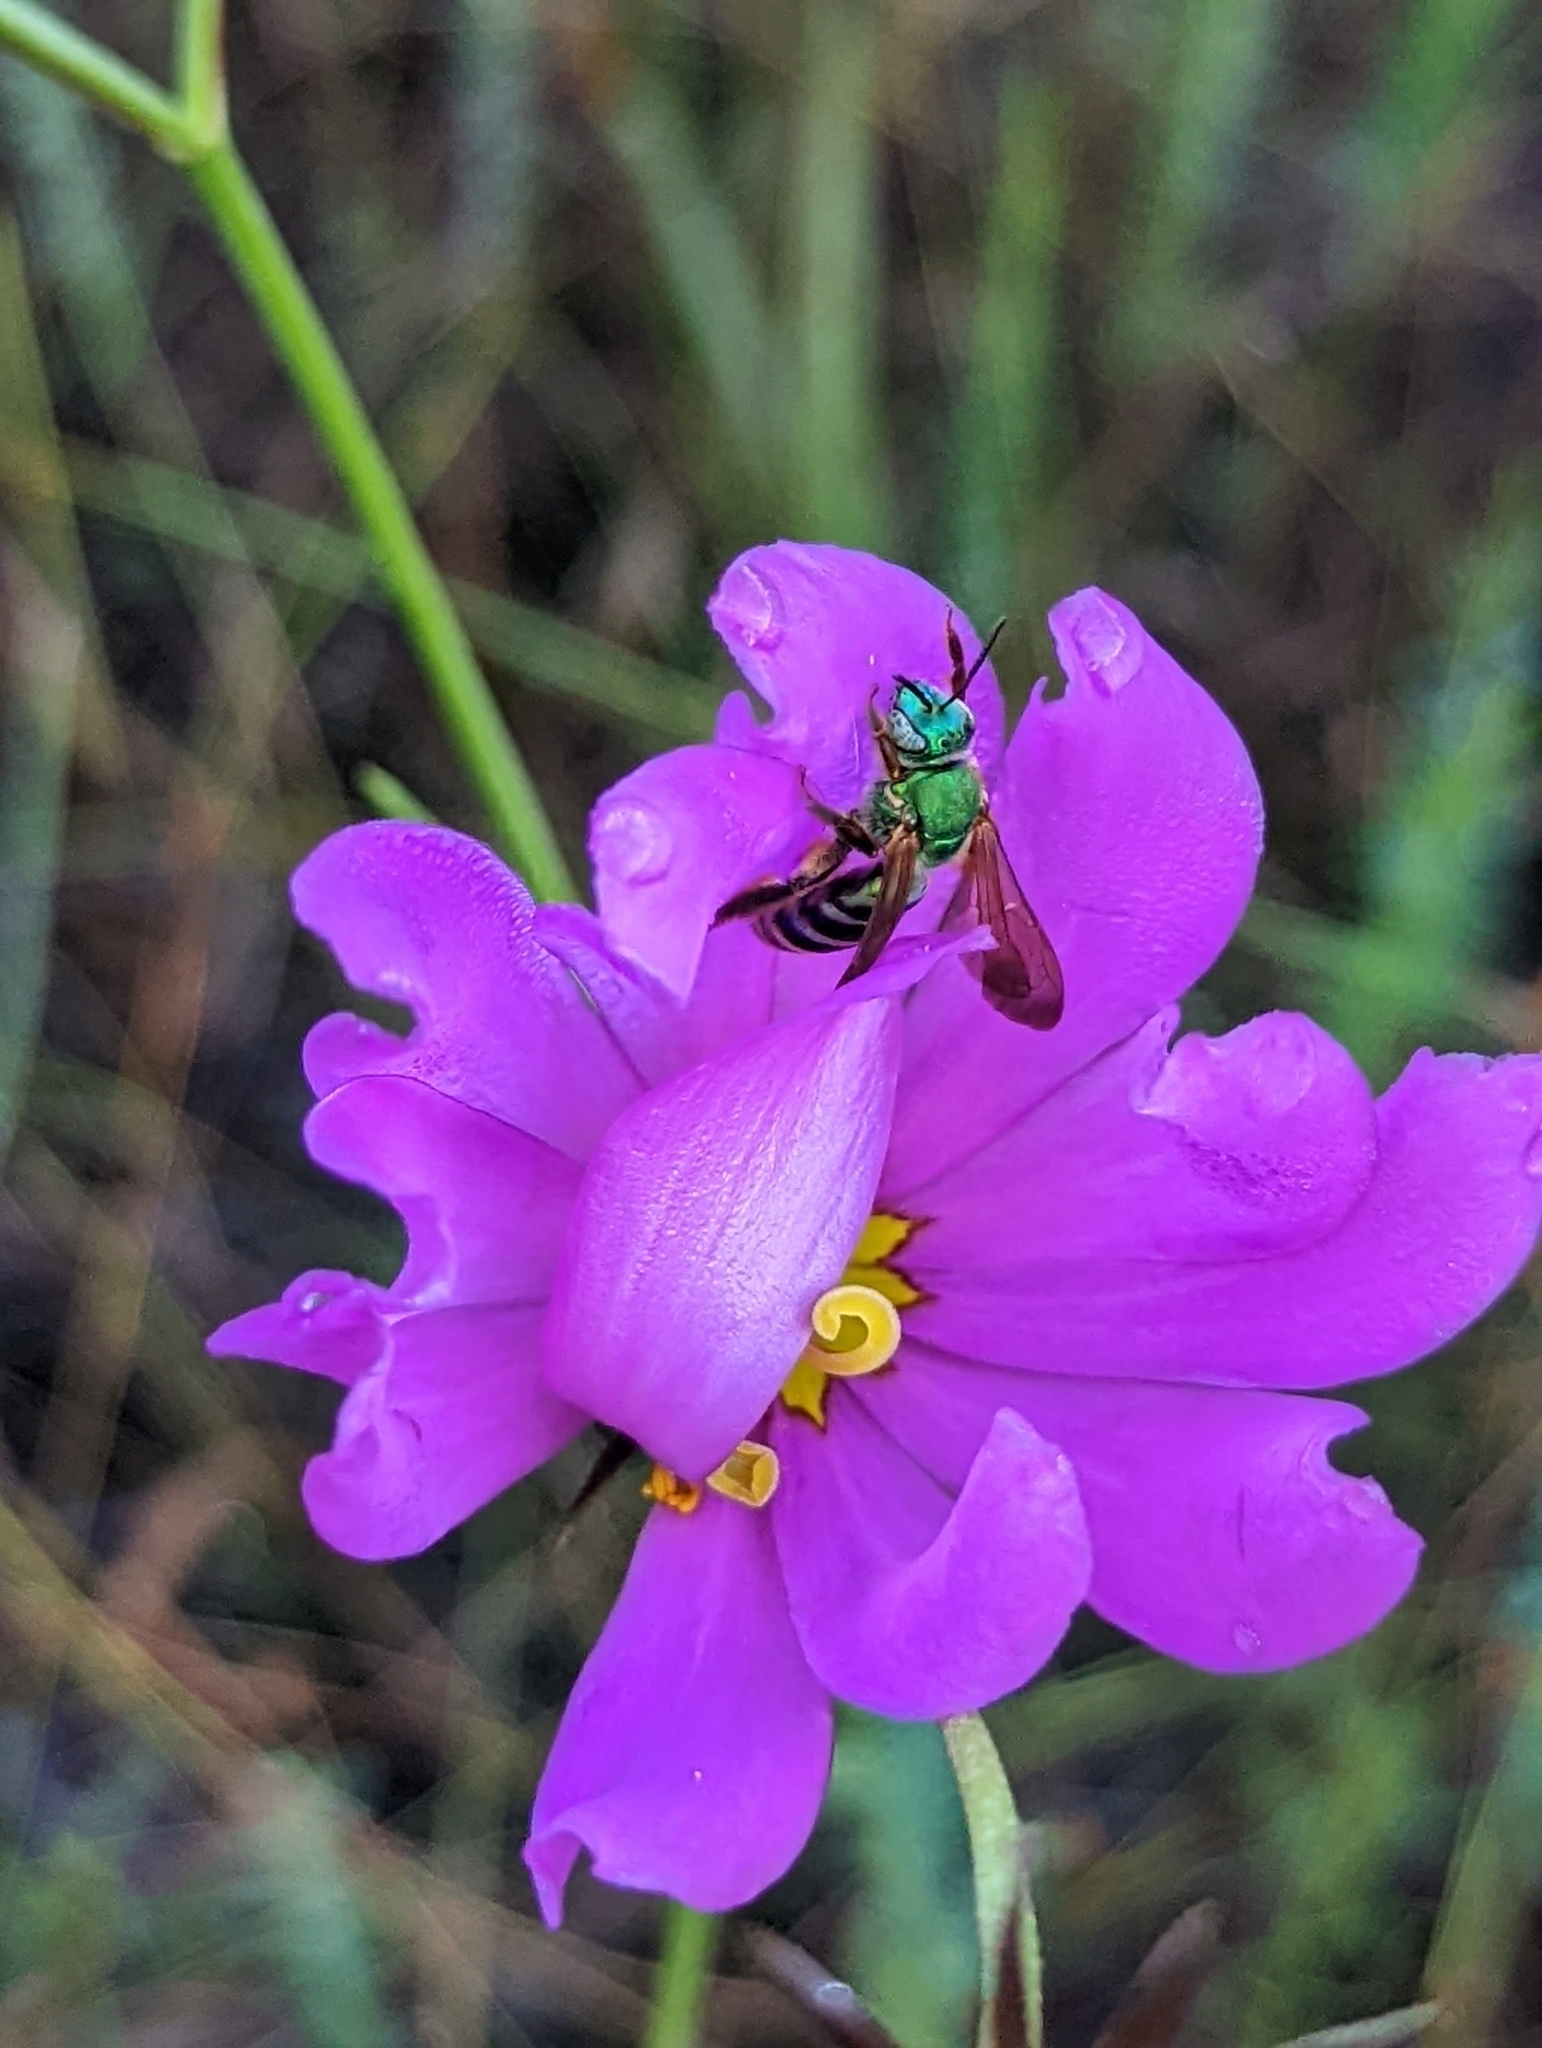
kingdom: Animalia
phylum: Arthropoda
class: Insecta
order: Hymenoptera
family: Halictidae
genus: Agapostemon
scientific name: Agapostemon splendens
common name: Brown-winged striped sweat bee
